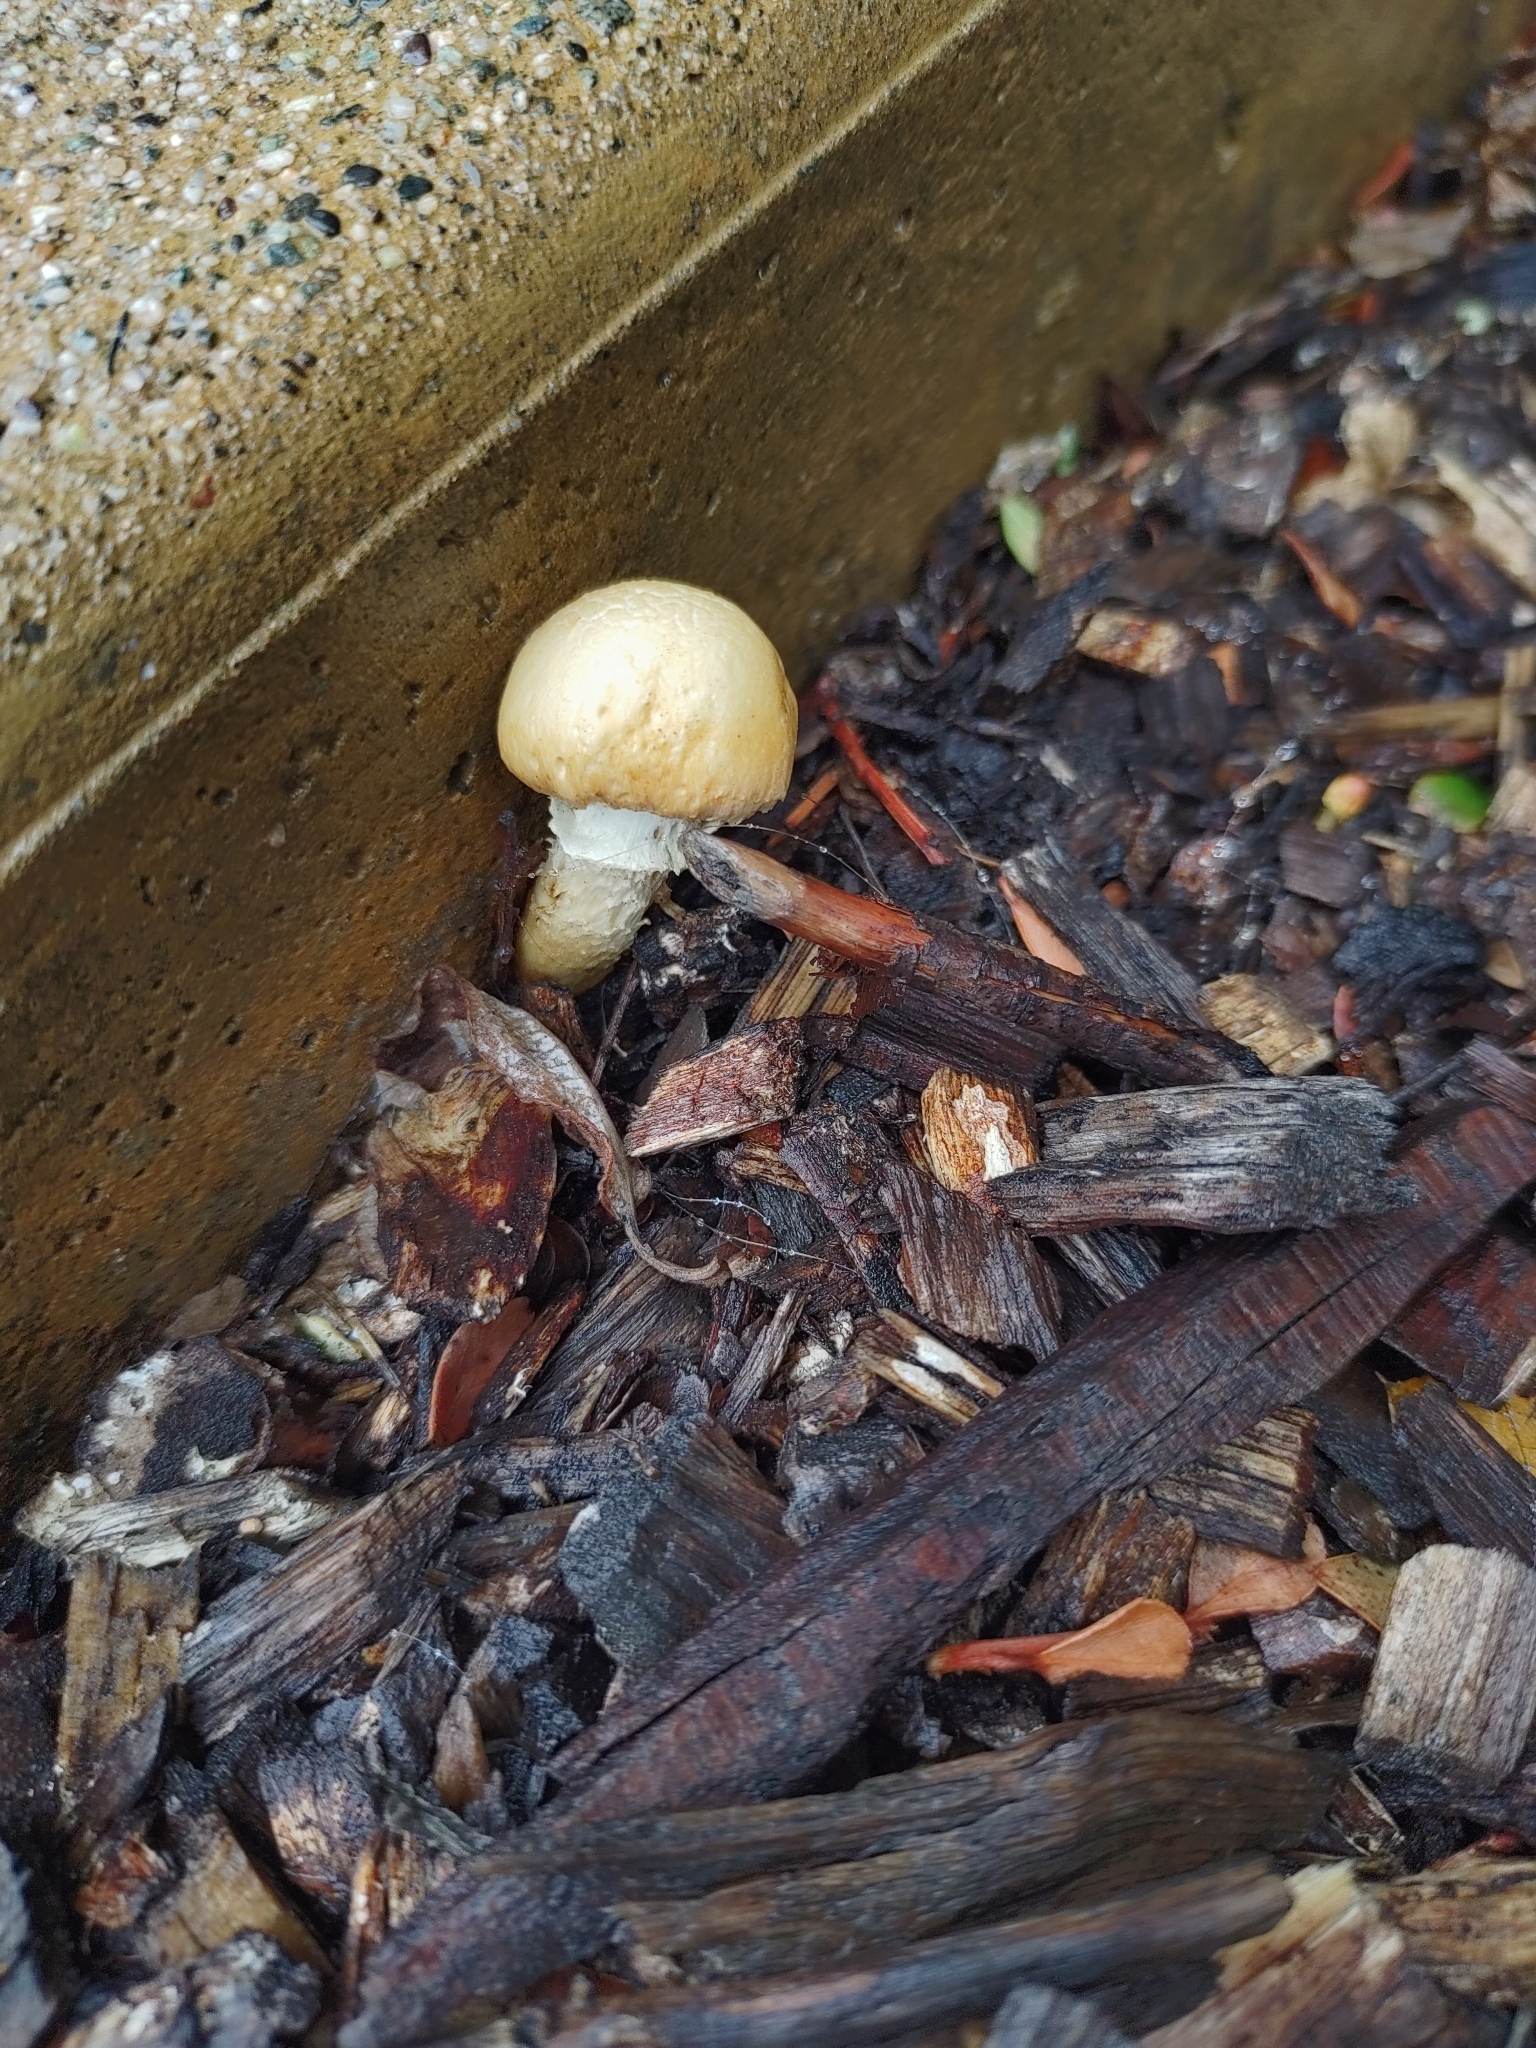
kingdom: Fungi
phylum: Basidiomycota
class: Agaricomycetes
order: Agaricales
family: Strophariaceae
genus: Leratiomyces
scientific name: Leratiomyces percevalii
